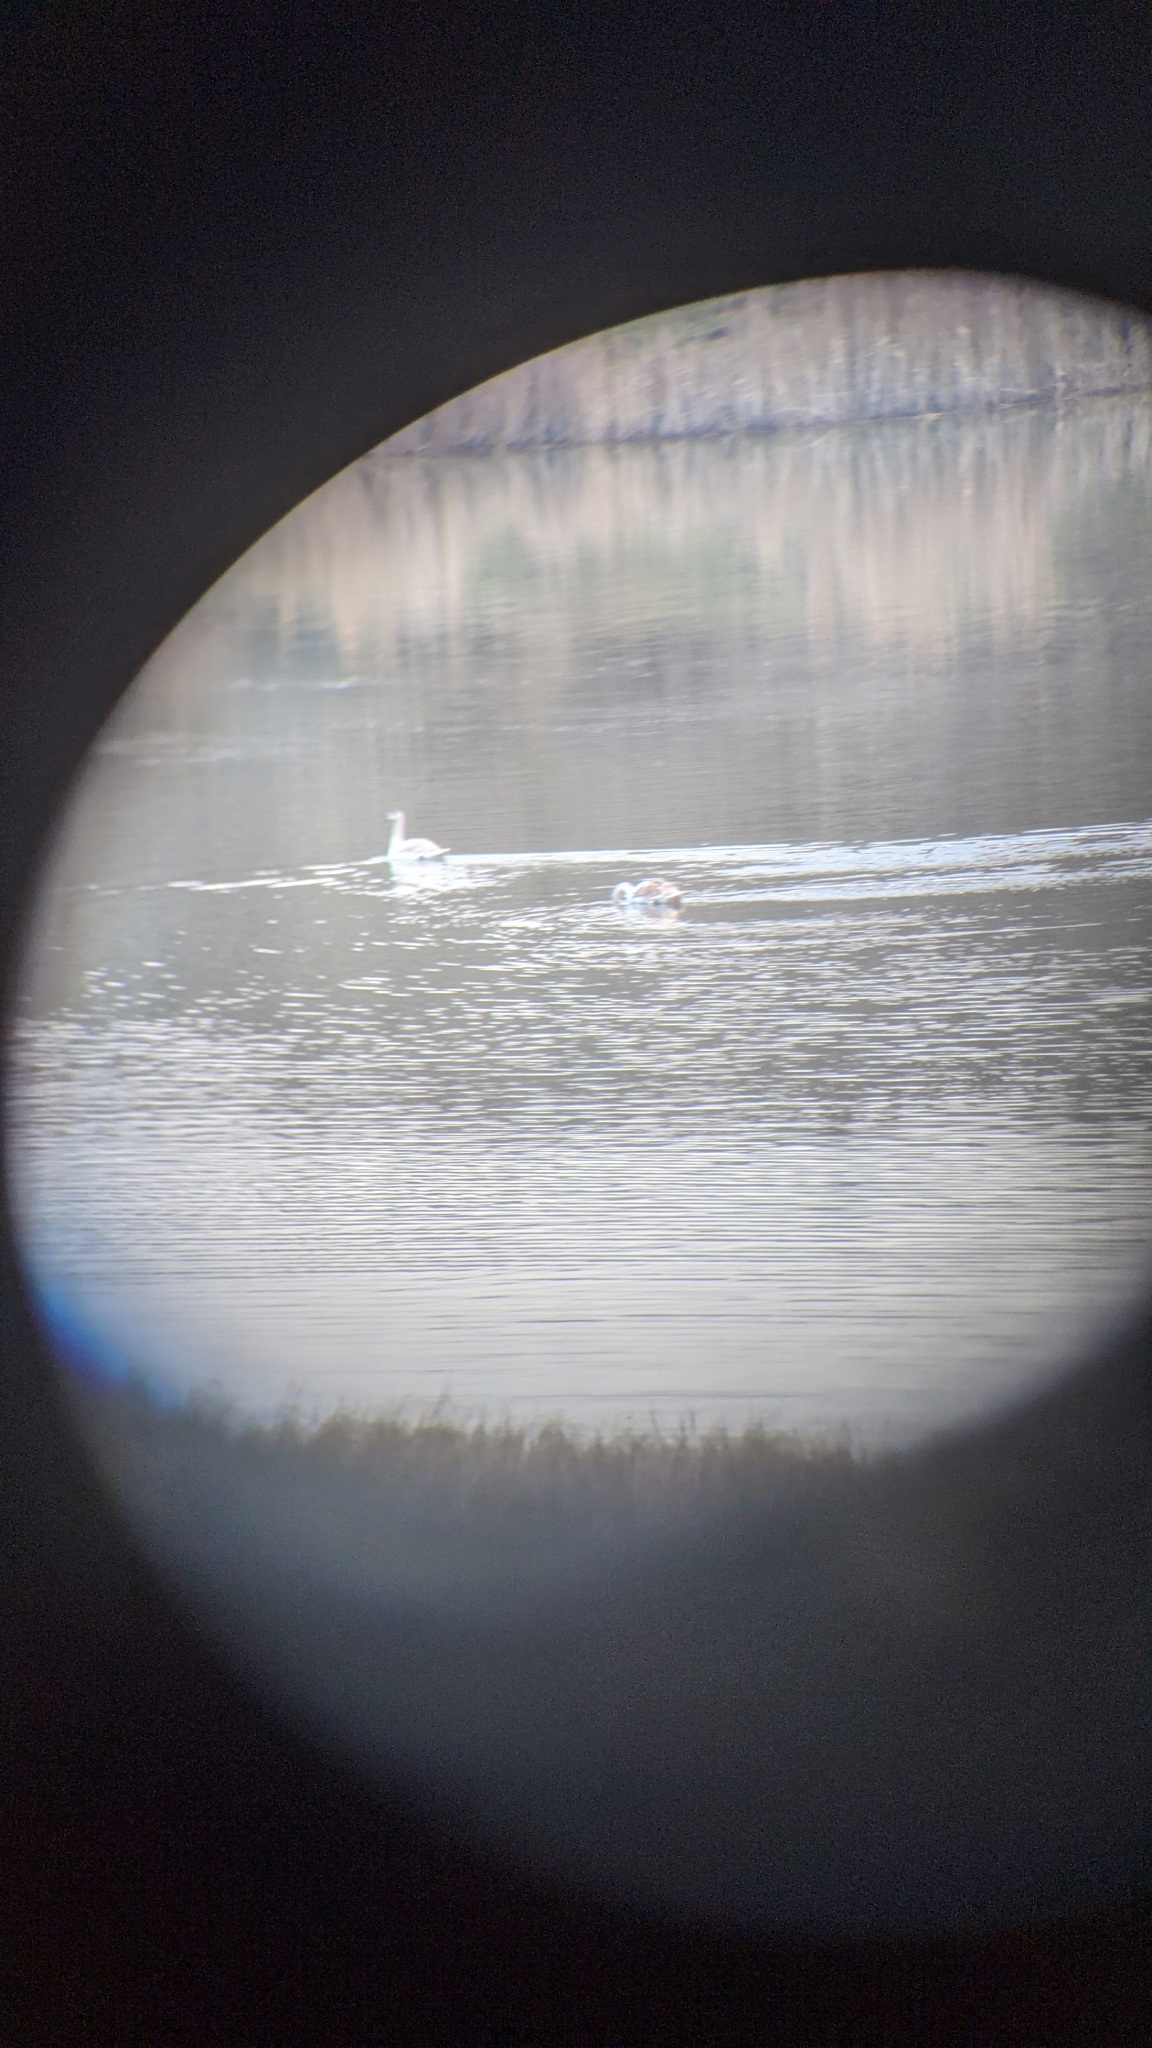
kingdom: Animalia
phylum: Chordata
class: Aves
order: Anseriformes
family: Anatidae
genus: Cygnus
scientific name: Cygnus olor
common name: Mute swan
